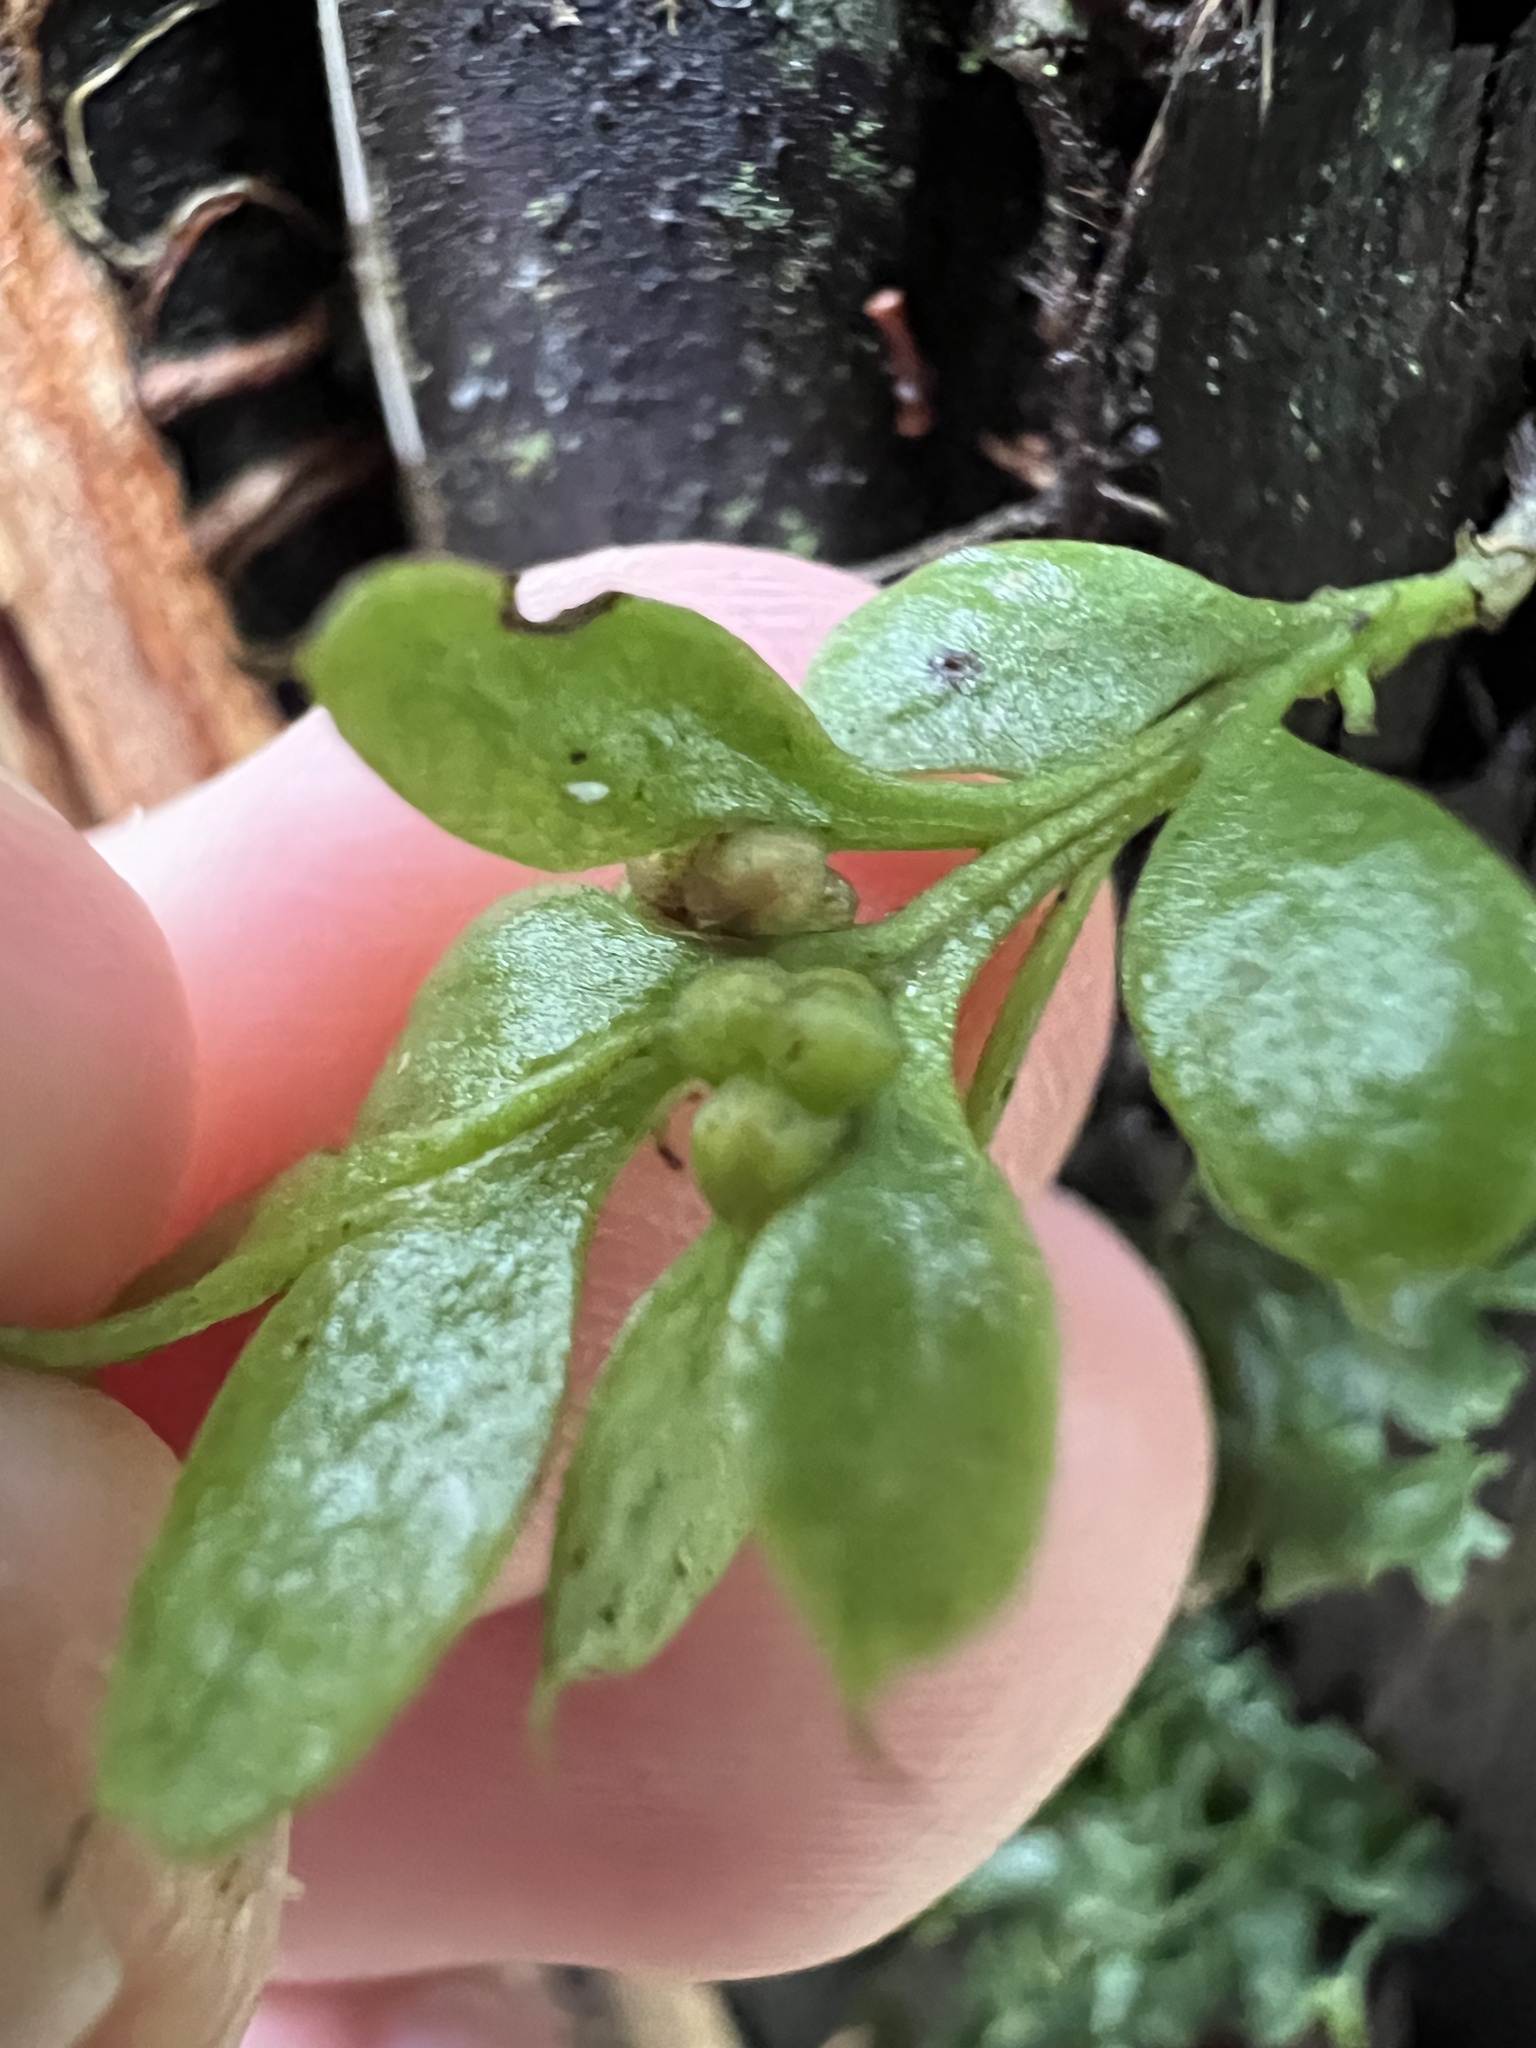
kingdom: Plantae
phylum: Tracheophyta
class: Polypodiopsida
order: Psilotales
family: Psilotaceae
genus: Tmesipteris
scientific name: Tmesipteris lanceolata
